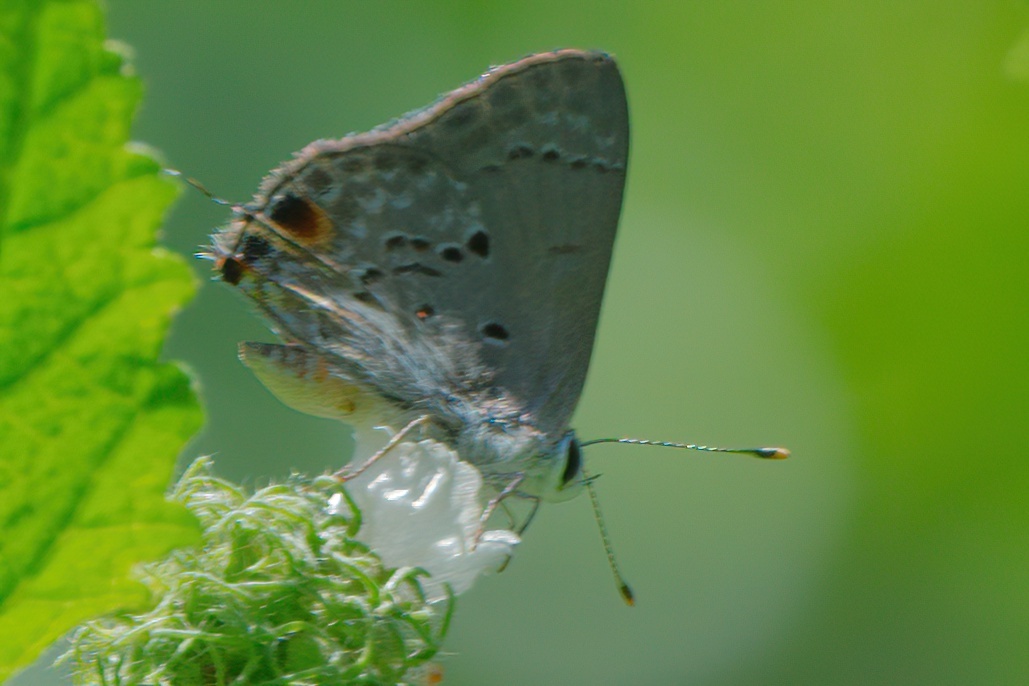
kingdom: Animalia
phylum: Arthropoda
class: Insecta
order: Lepidoptera
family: Lycaenidae
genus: Callicista
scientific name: Callicista columella
